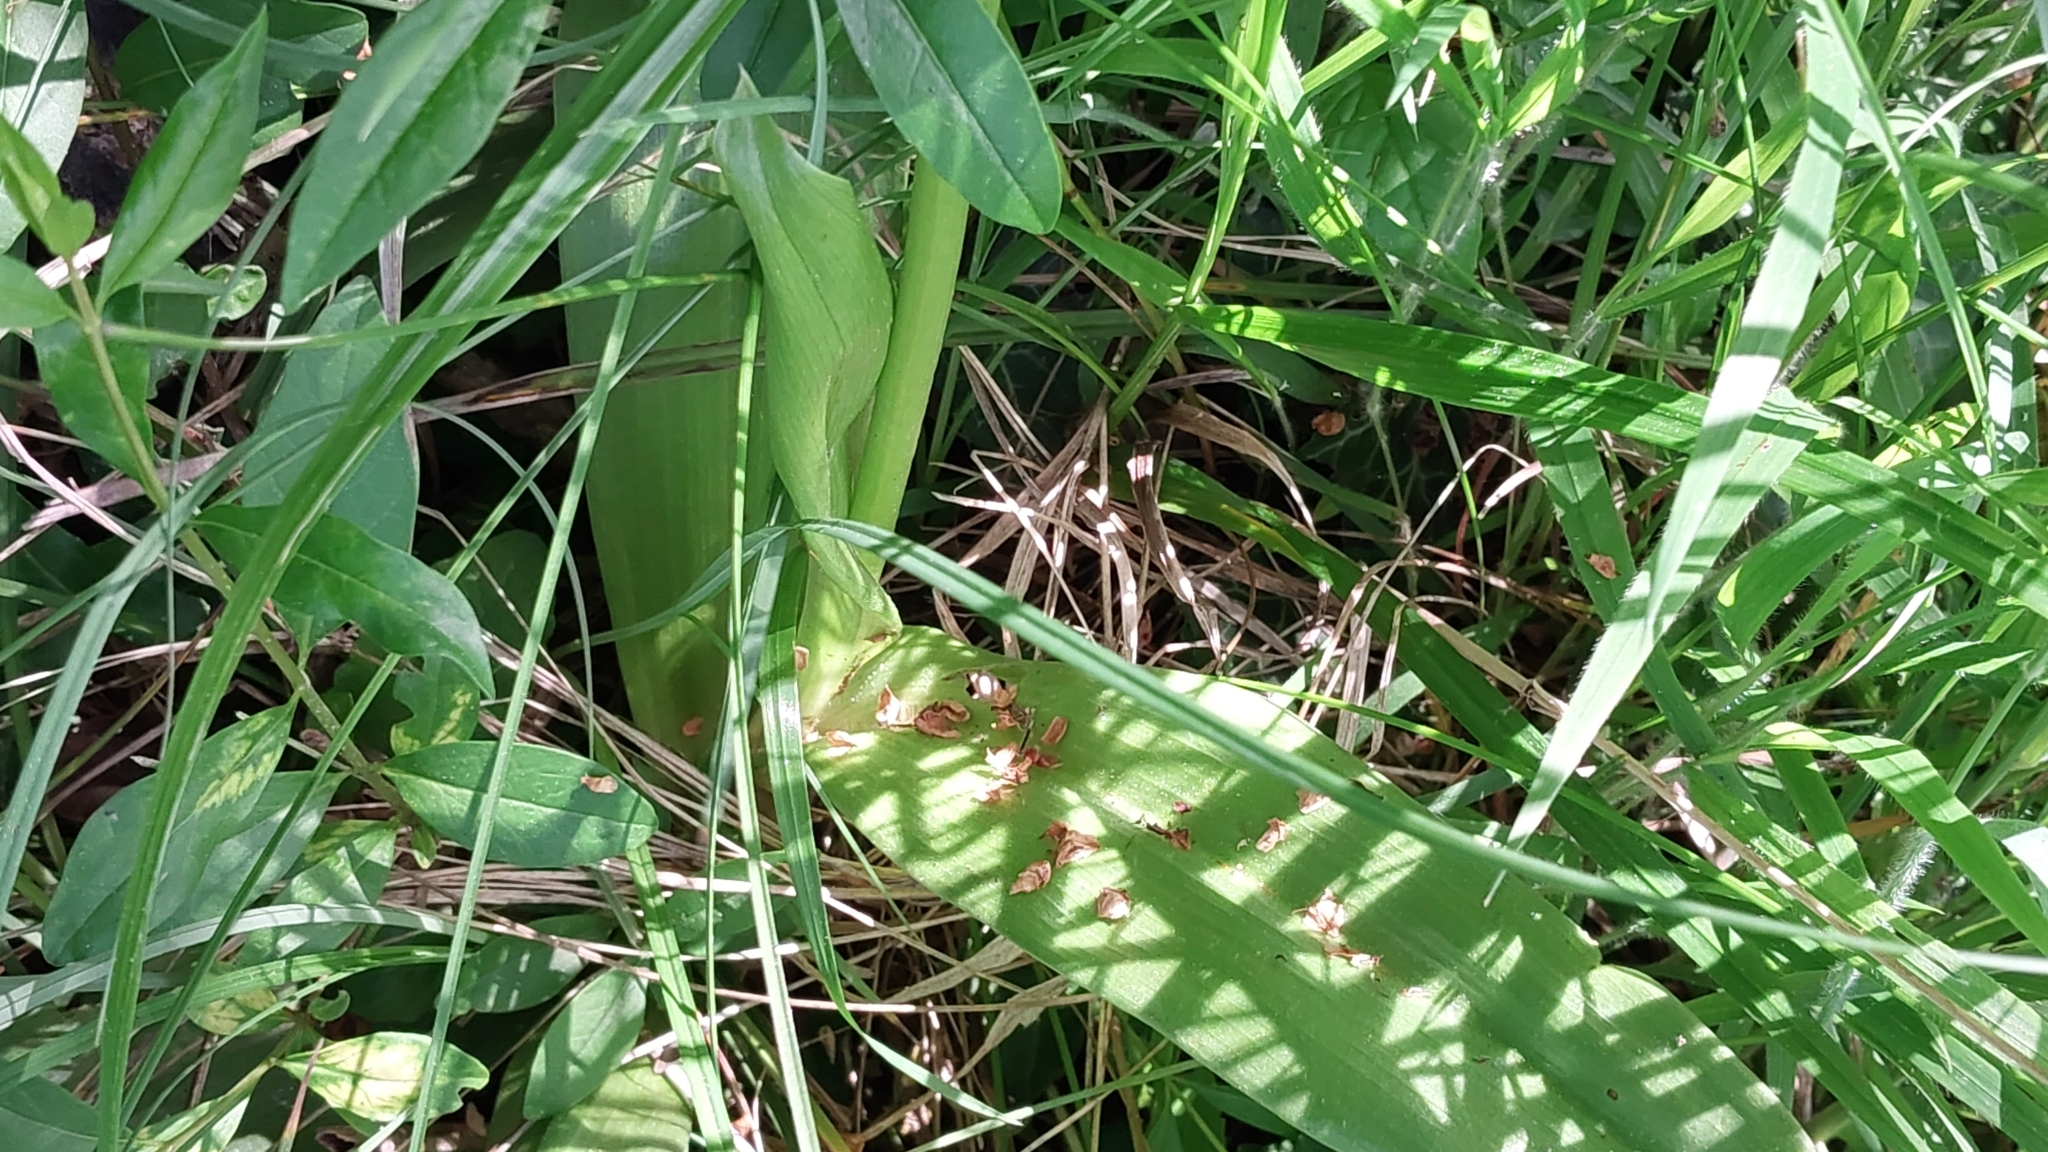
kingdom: Plantae
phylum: Tracheophyta
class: Liliopsida
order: Asparagales
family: Orchidaceae
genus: Orchis
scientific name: Orchis purpurea
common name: Lady orchid
